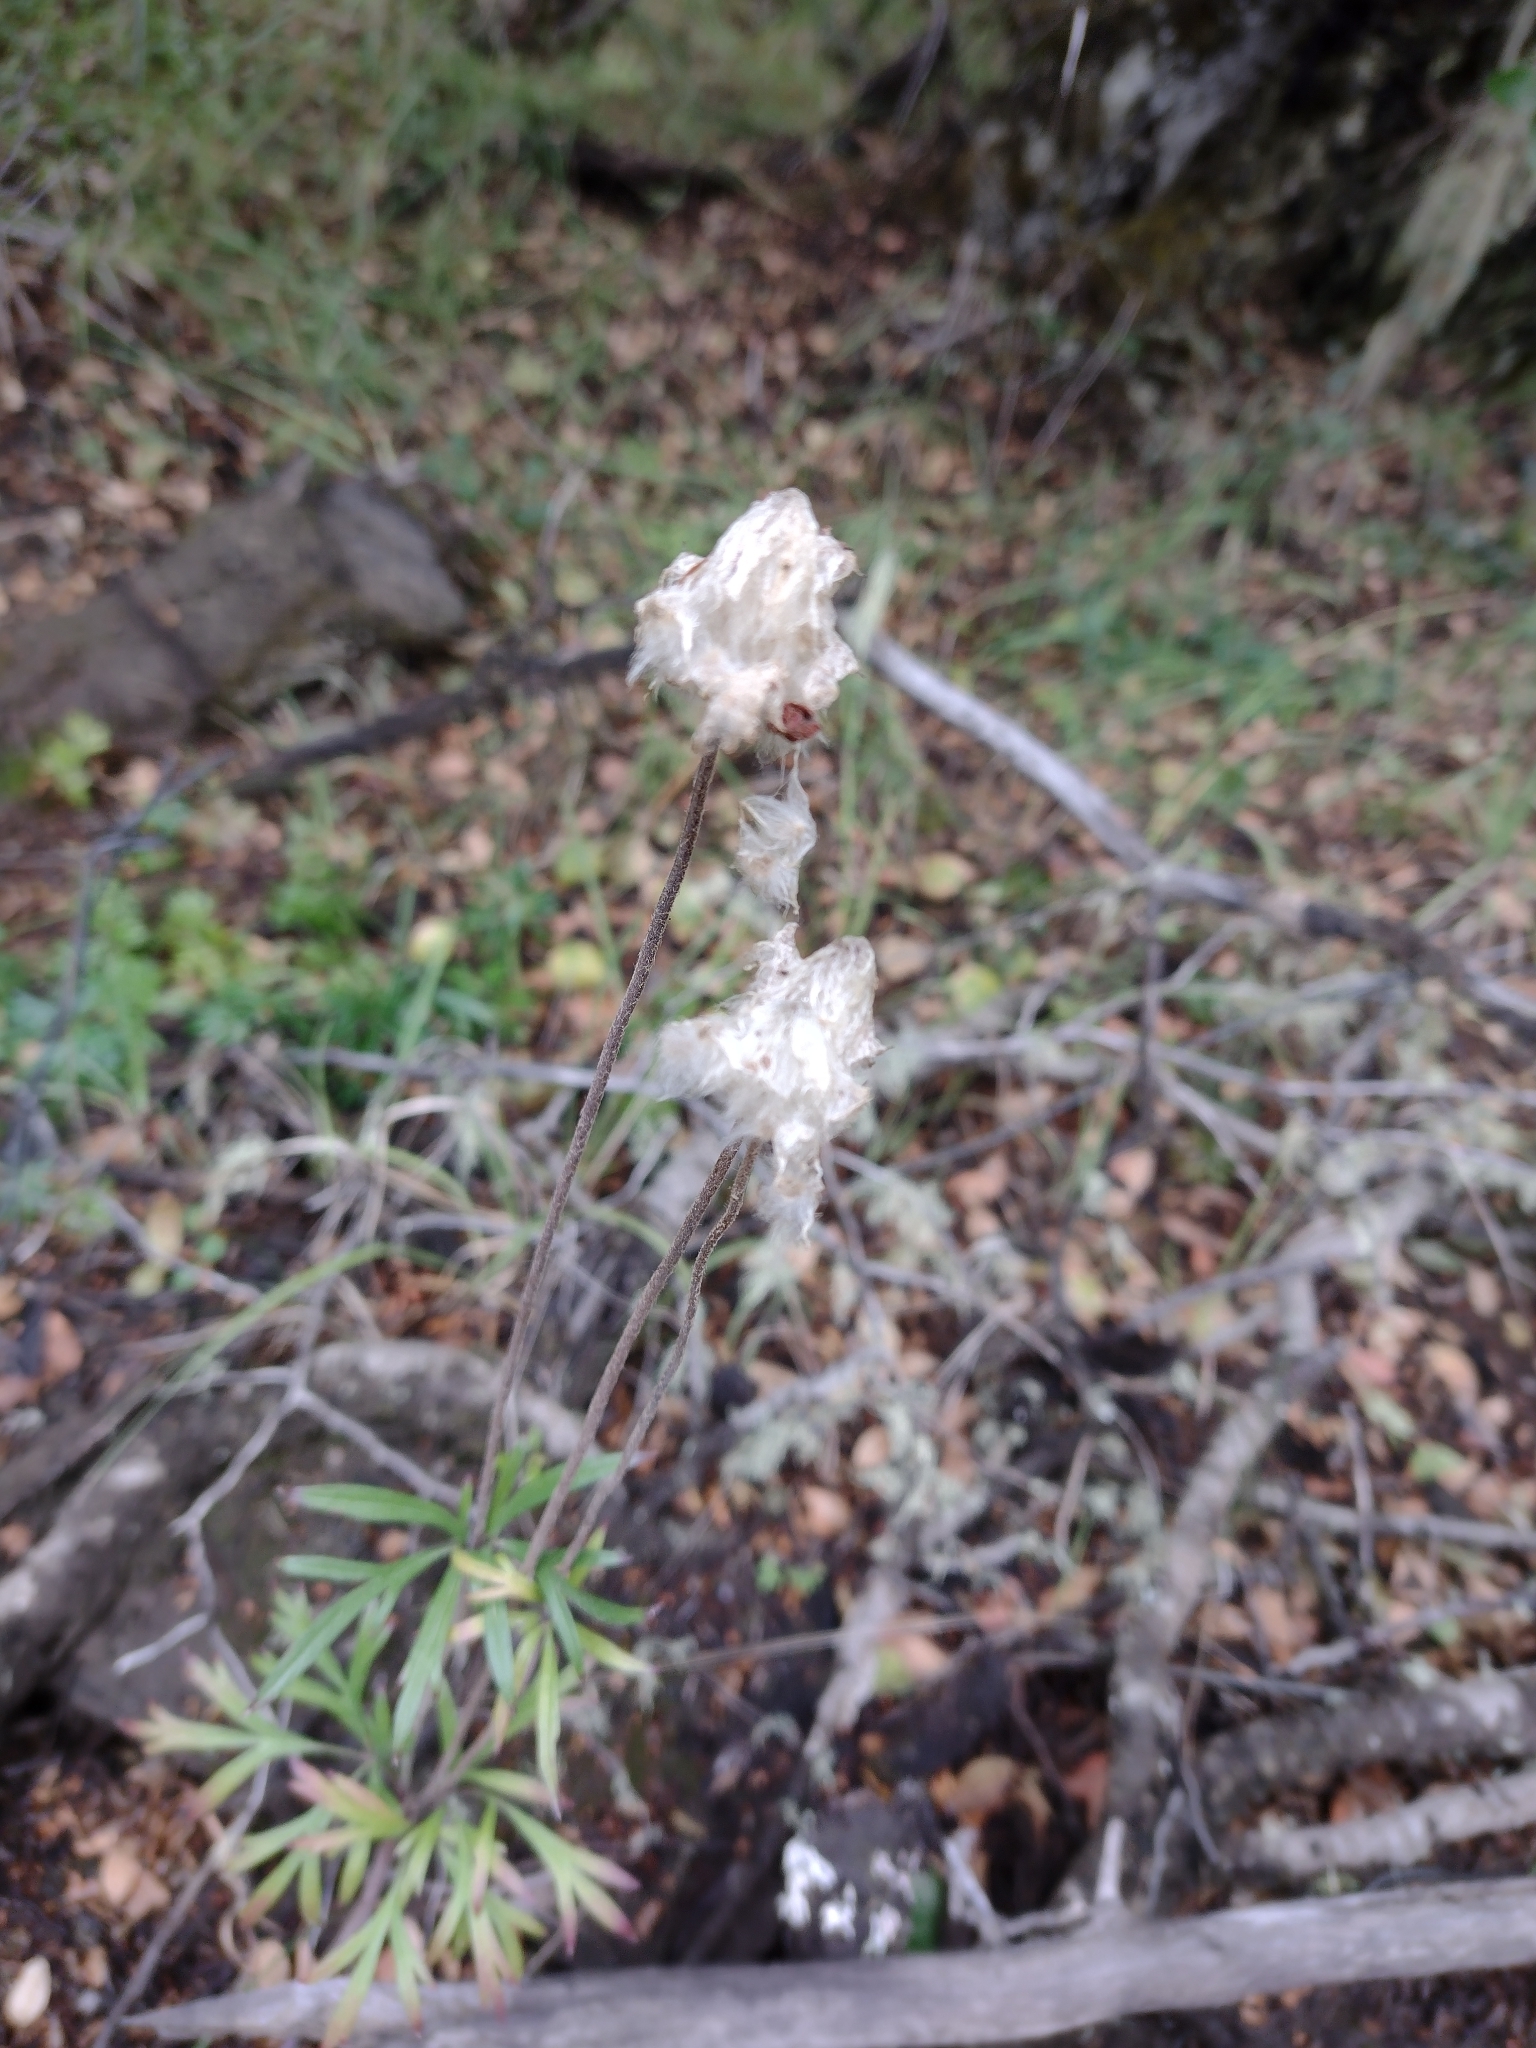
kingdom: Plantae
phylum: Tracheophyta
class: Magnoliopsida
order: Ranunculales
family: Ranunculaceae
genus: Anemone
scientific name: Anemone multifida
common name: Bird's-foot anemone
